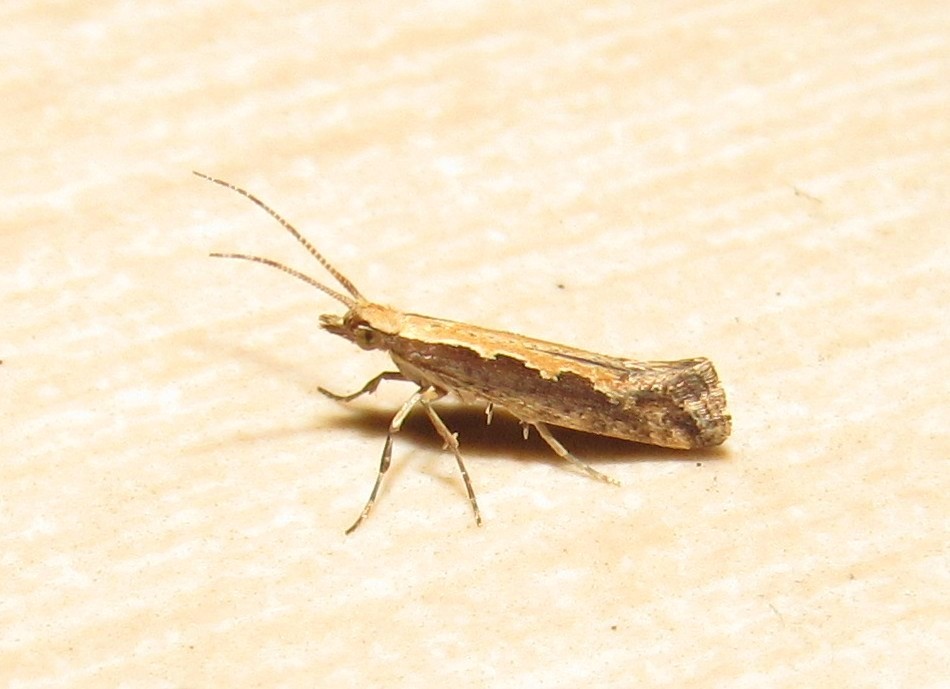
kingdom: Animalia
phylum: Arthropoda
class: Insecta
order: Lepidoptera
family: Plutellidae
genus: Plutella
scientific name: Plutella xylostella
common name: Diamond-back moth
